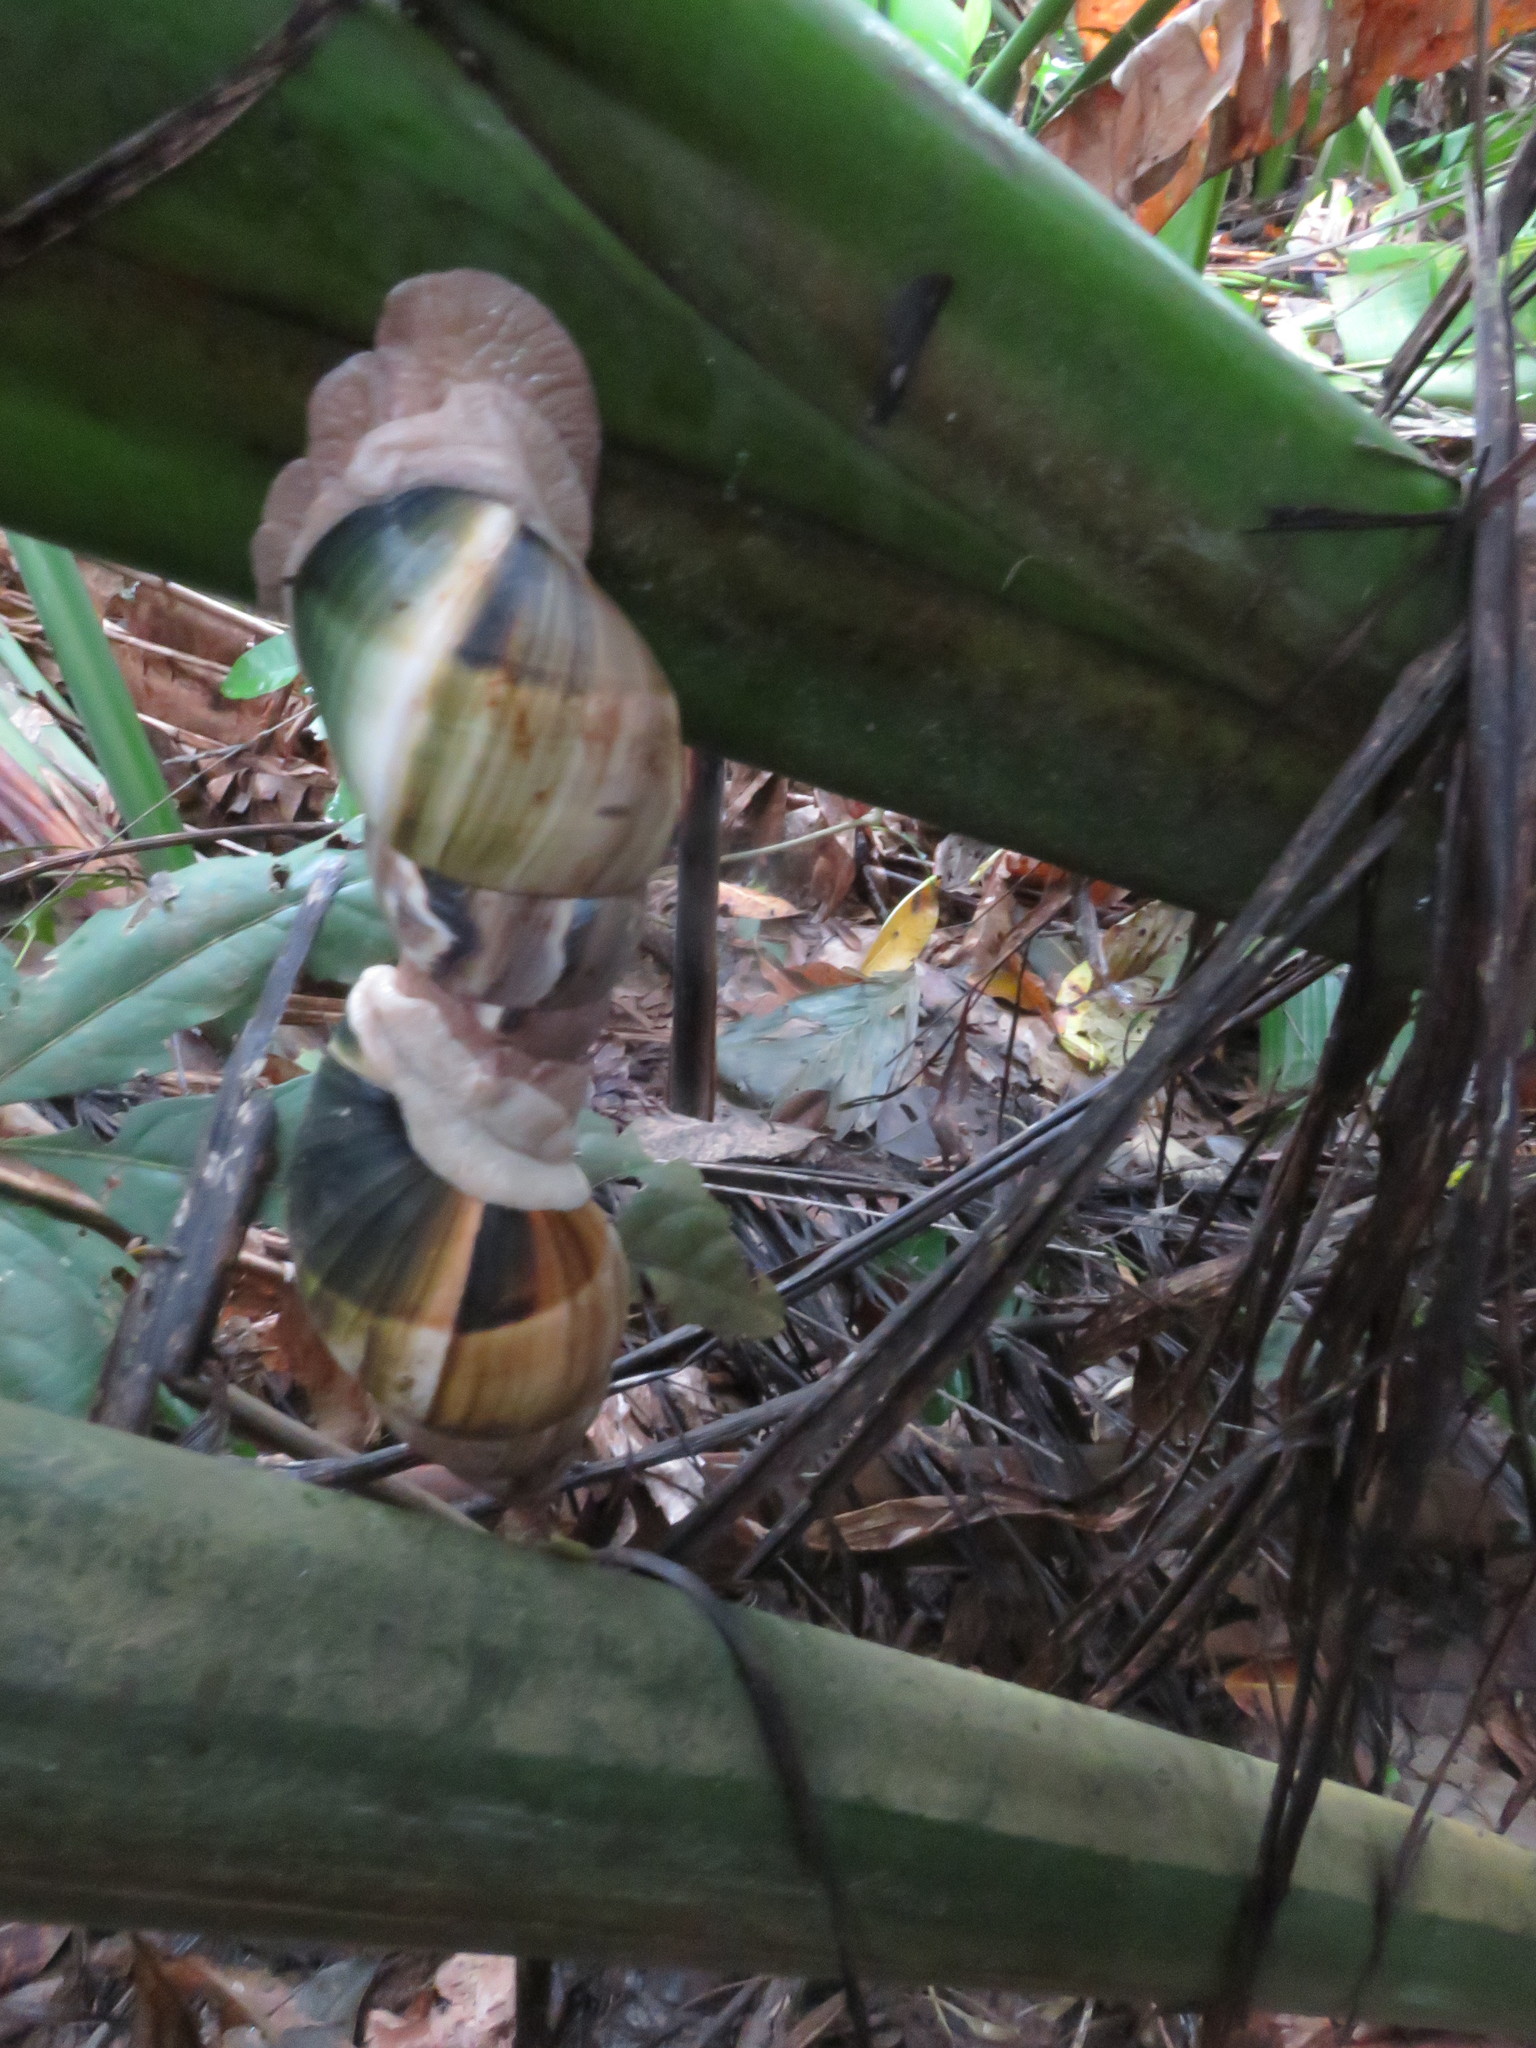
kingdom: Animalia
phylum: Mollusca
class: Gastropoda
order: Stylommatophora
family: Orthalicidae
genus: Corona
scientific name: Corona incisa
